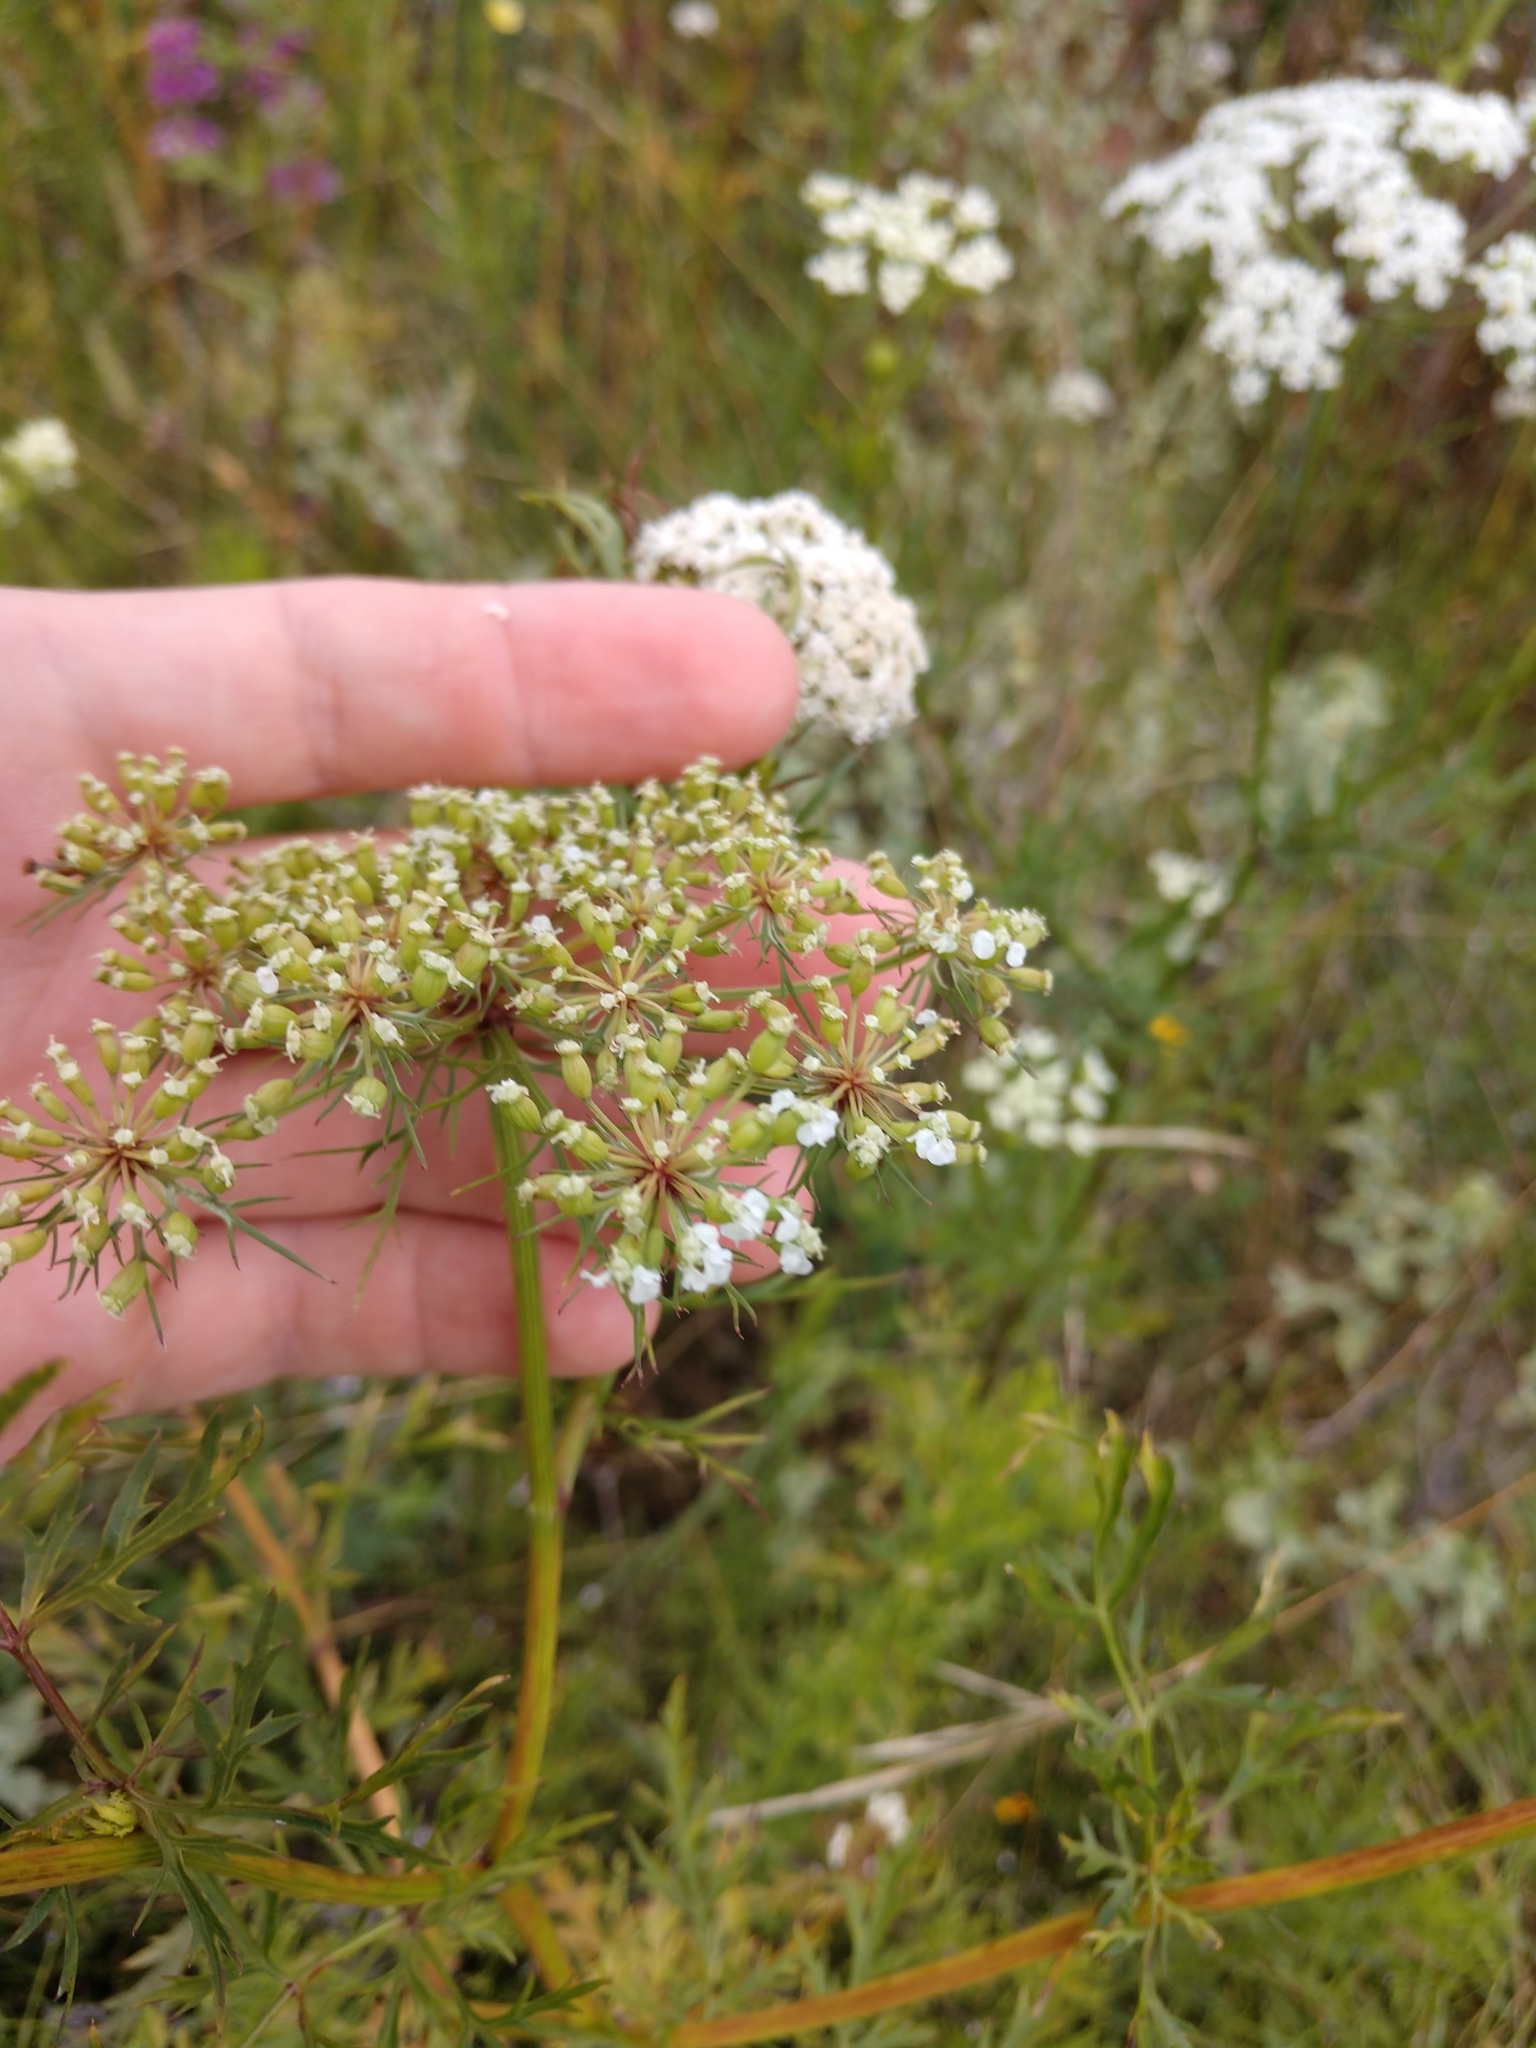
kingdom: Plantae
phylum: Tracheophyta
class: Magnoliopsida
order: Apiales
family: Apiaceae
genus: Daucosma
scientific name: Daucosma laciniatum
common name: Meadow-parasol
